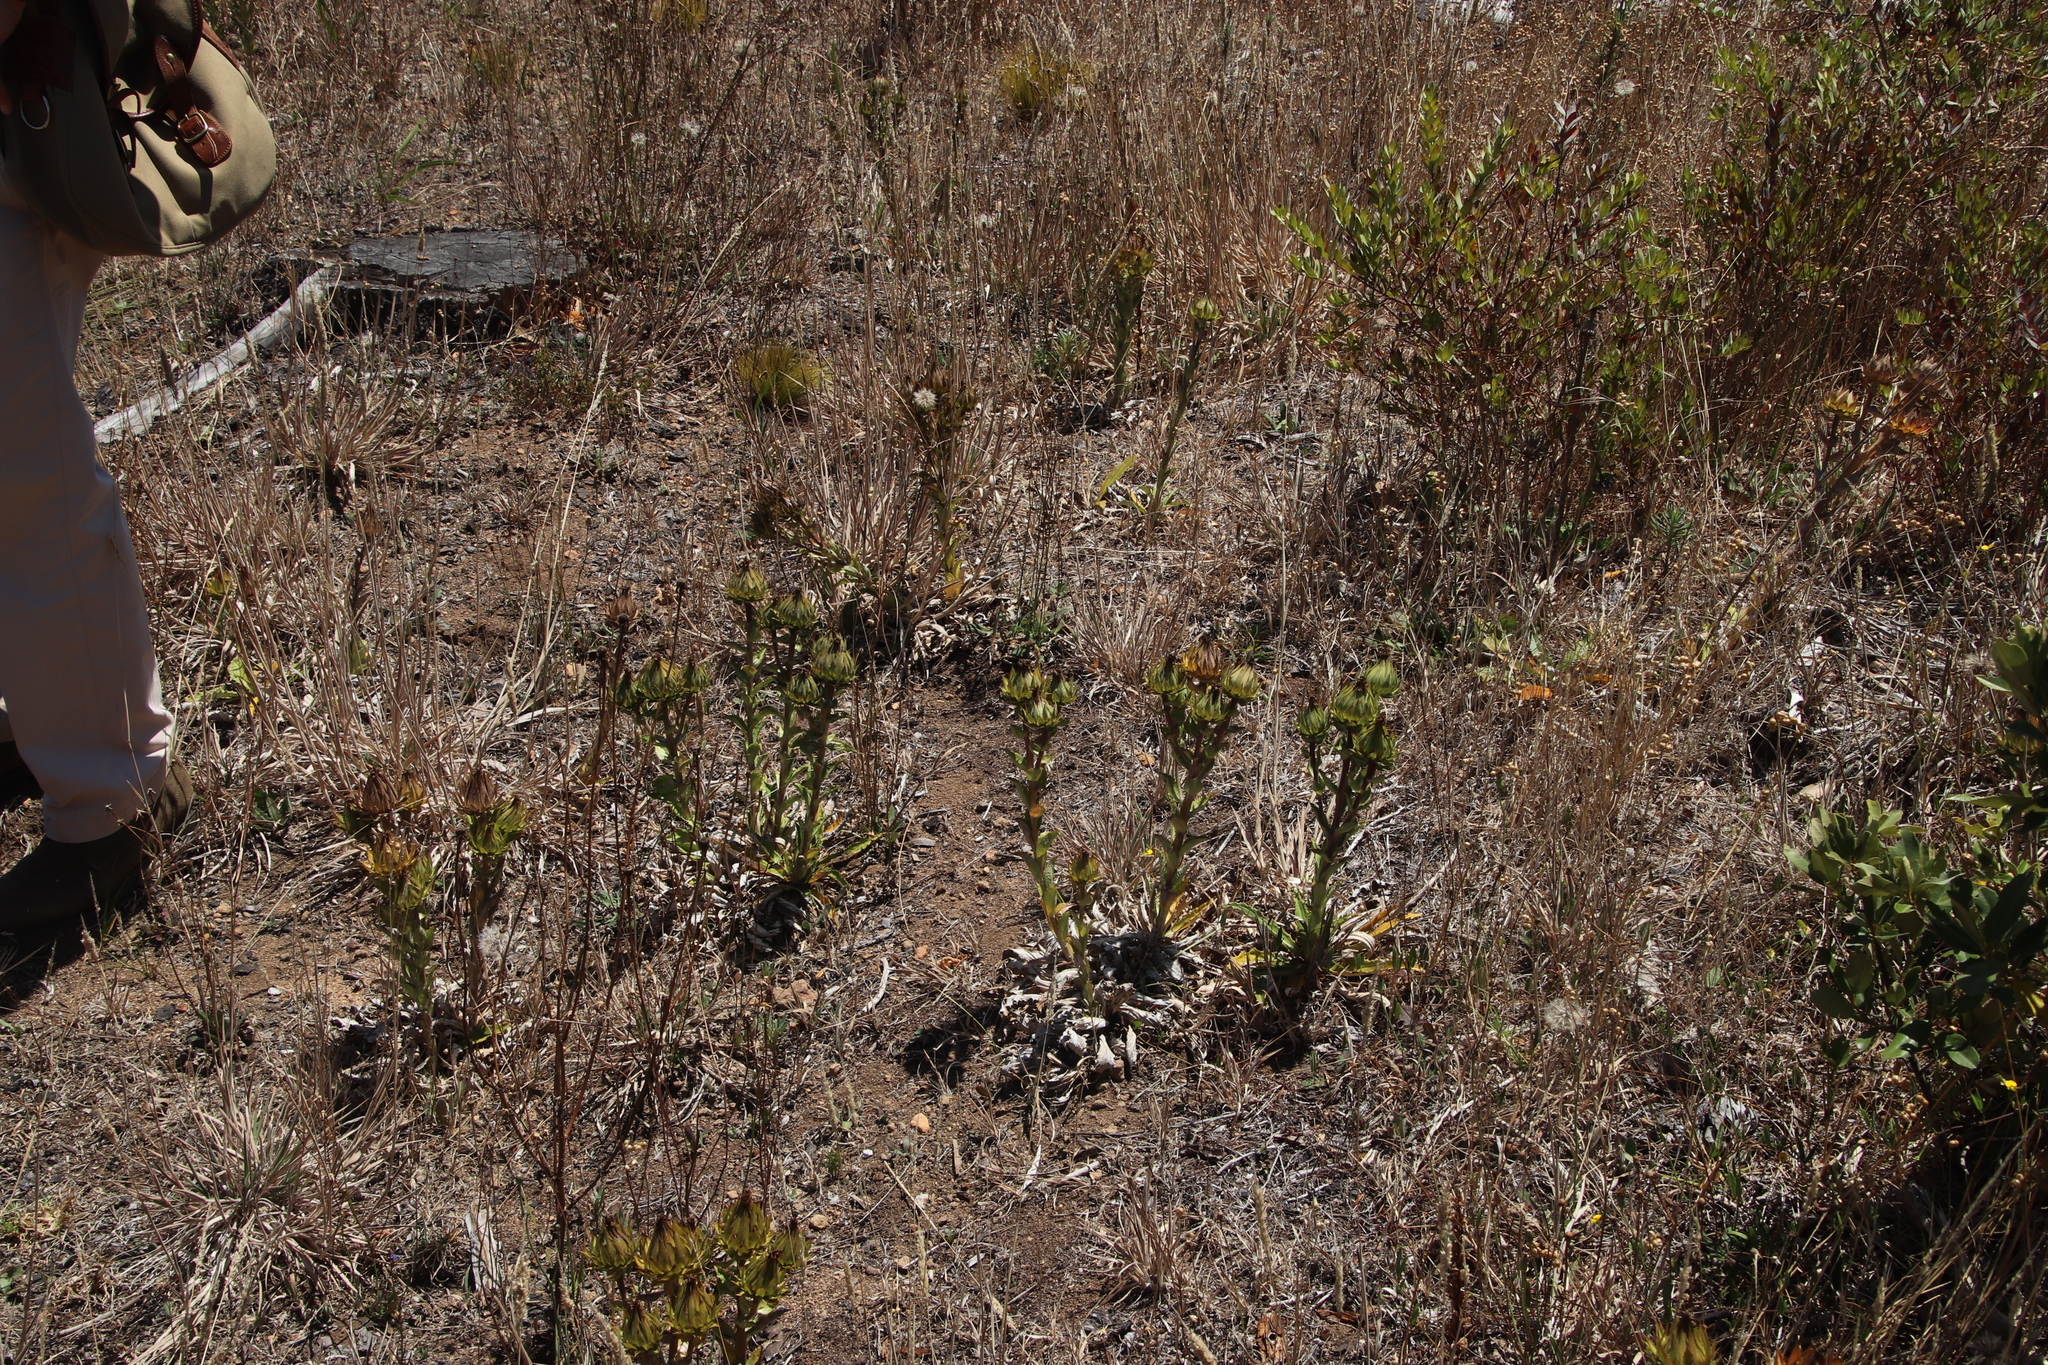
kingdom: Plantae
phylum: Tracheophyta
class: Magnoliopsida
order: Asterales
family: Asteraceae
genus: Berkheya
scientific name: Berkheya armata
